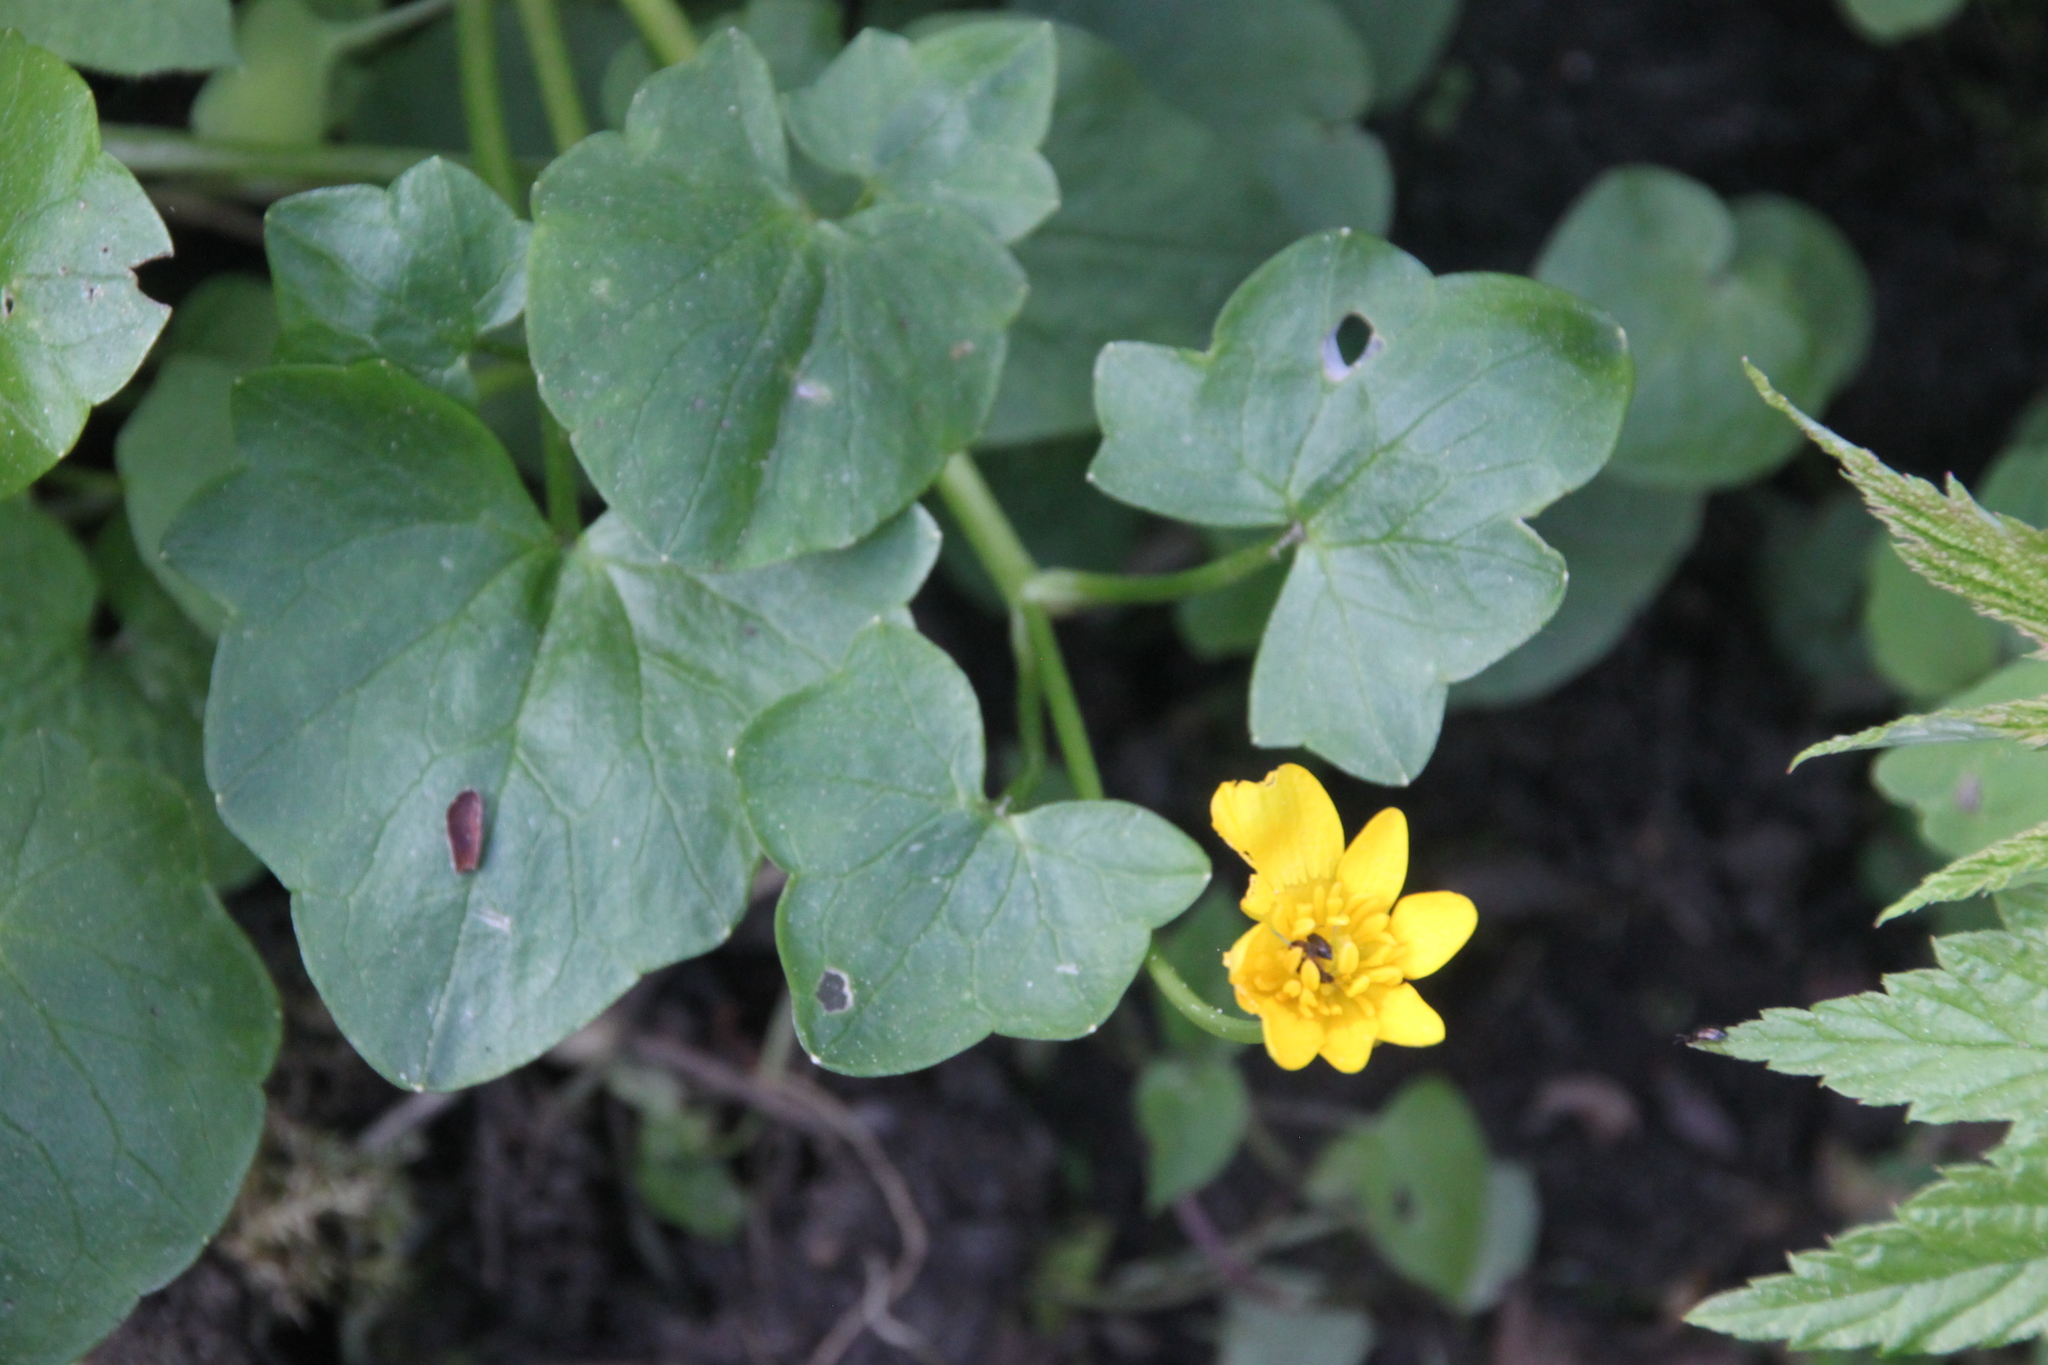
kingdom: Plantae
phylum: Tracheophyta
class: Magnoliopsida
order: Ranunculales
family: Ranunculaceae
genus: Ficaria
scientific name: Ficaria verna
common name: Lesser celandine
